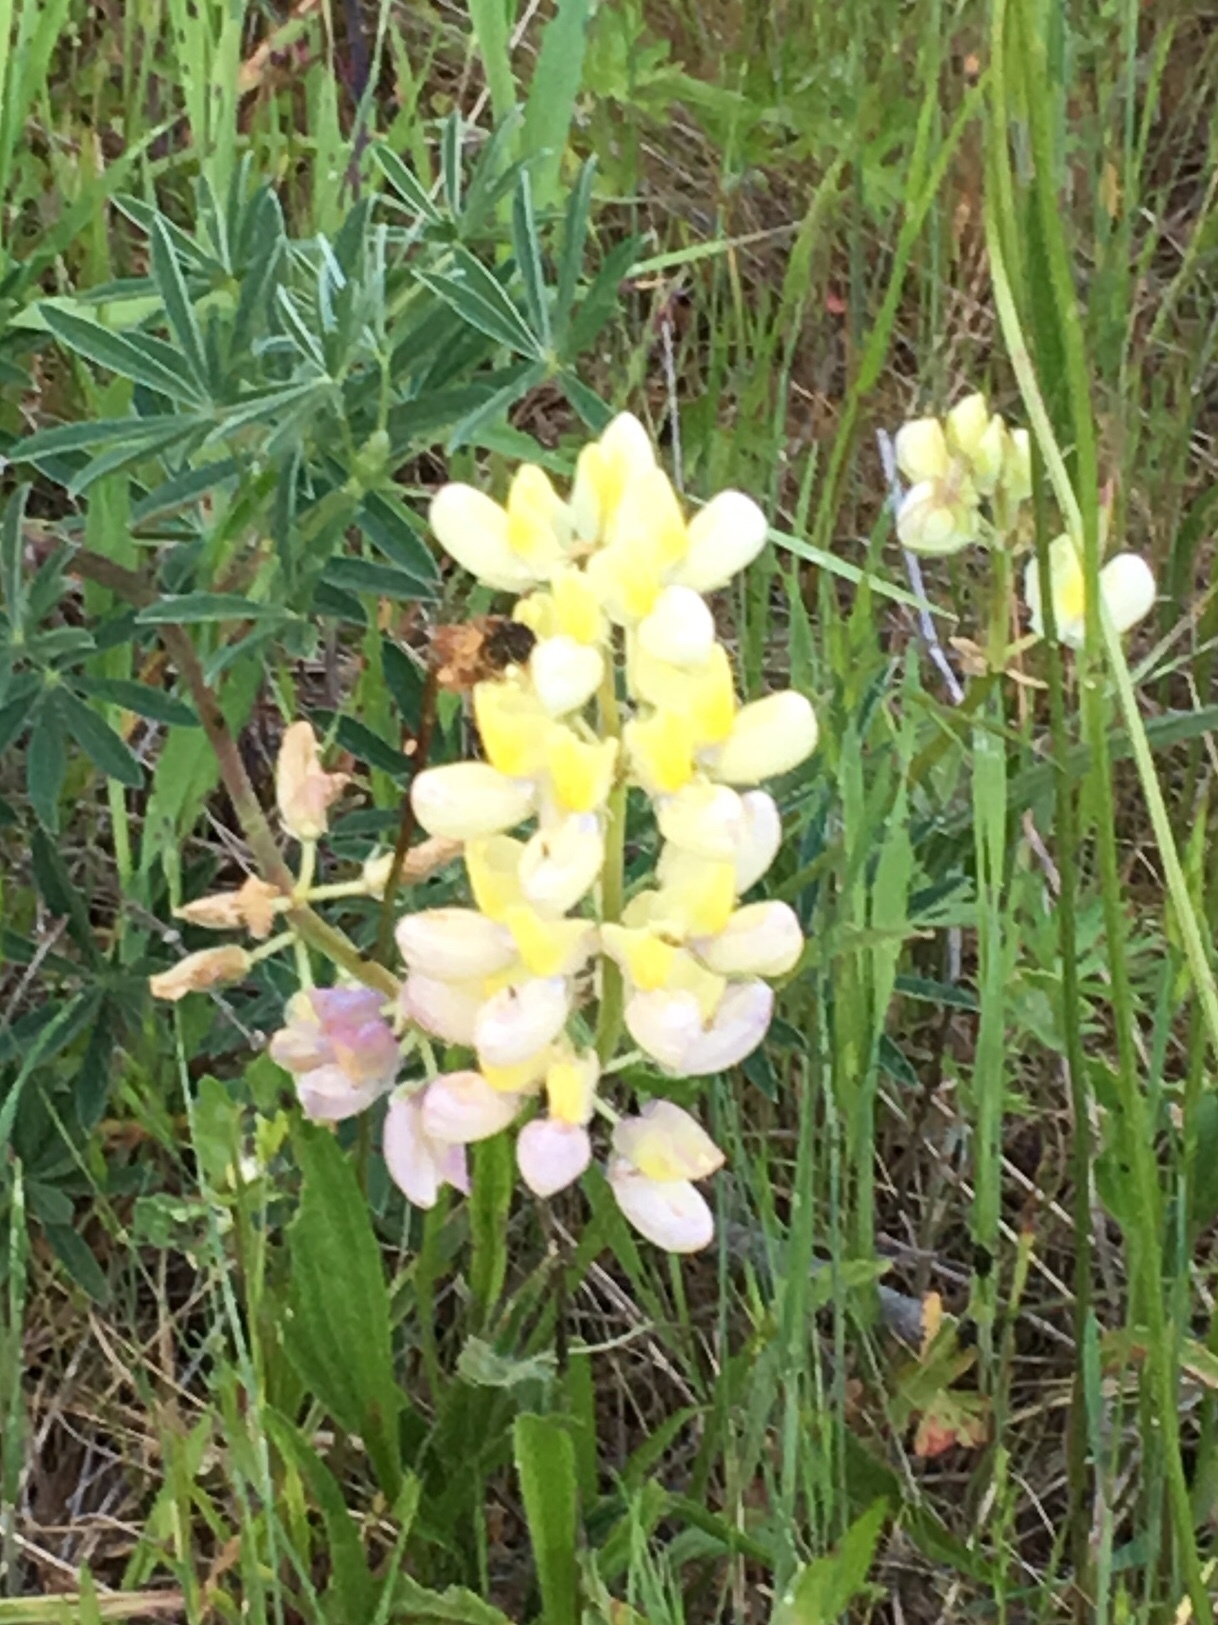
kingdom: Plantae
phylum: Tracheophyta
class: Magnoliopsida
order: Fabales
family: Fabaceae
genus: Lupinus
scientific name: Lupinus arboreus
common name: Yellow bush lupine
